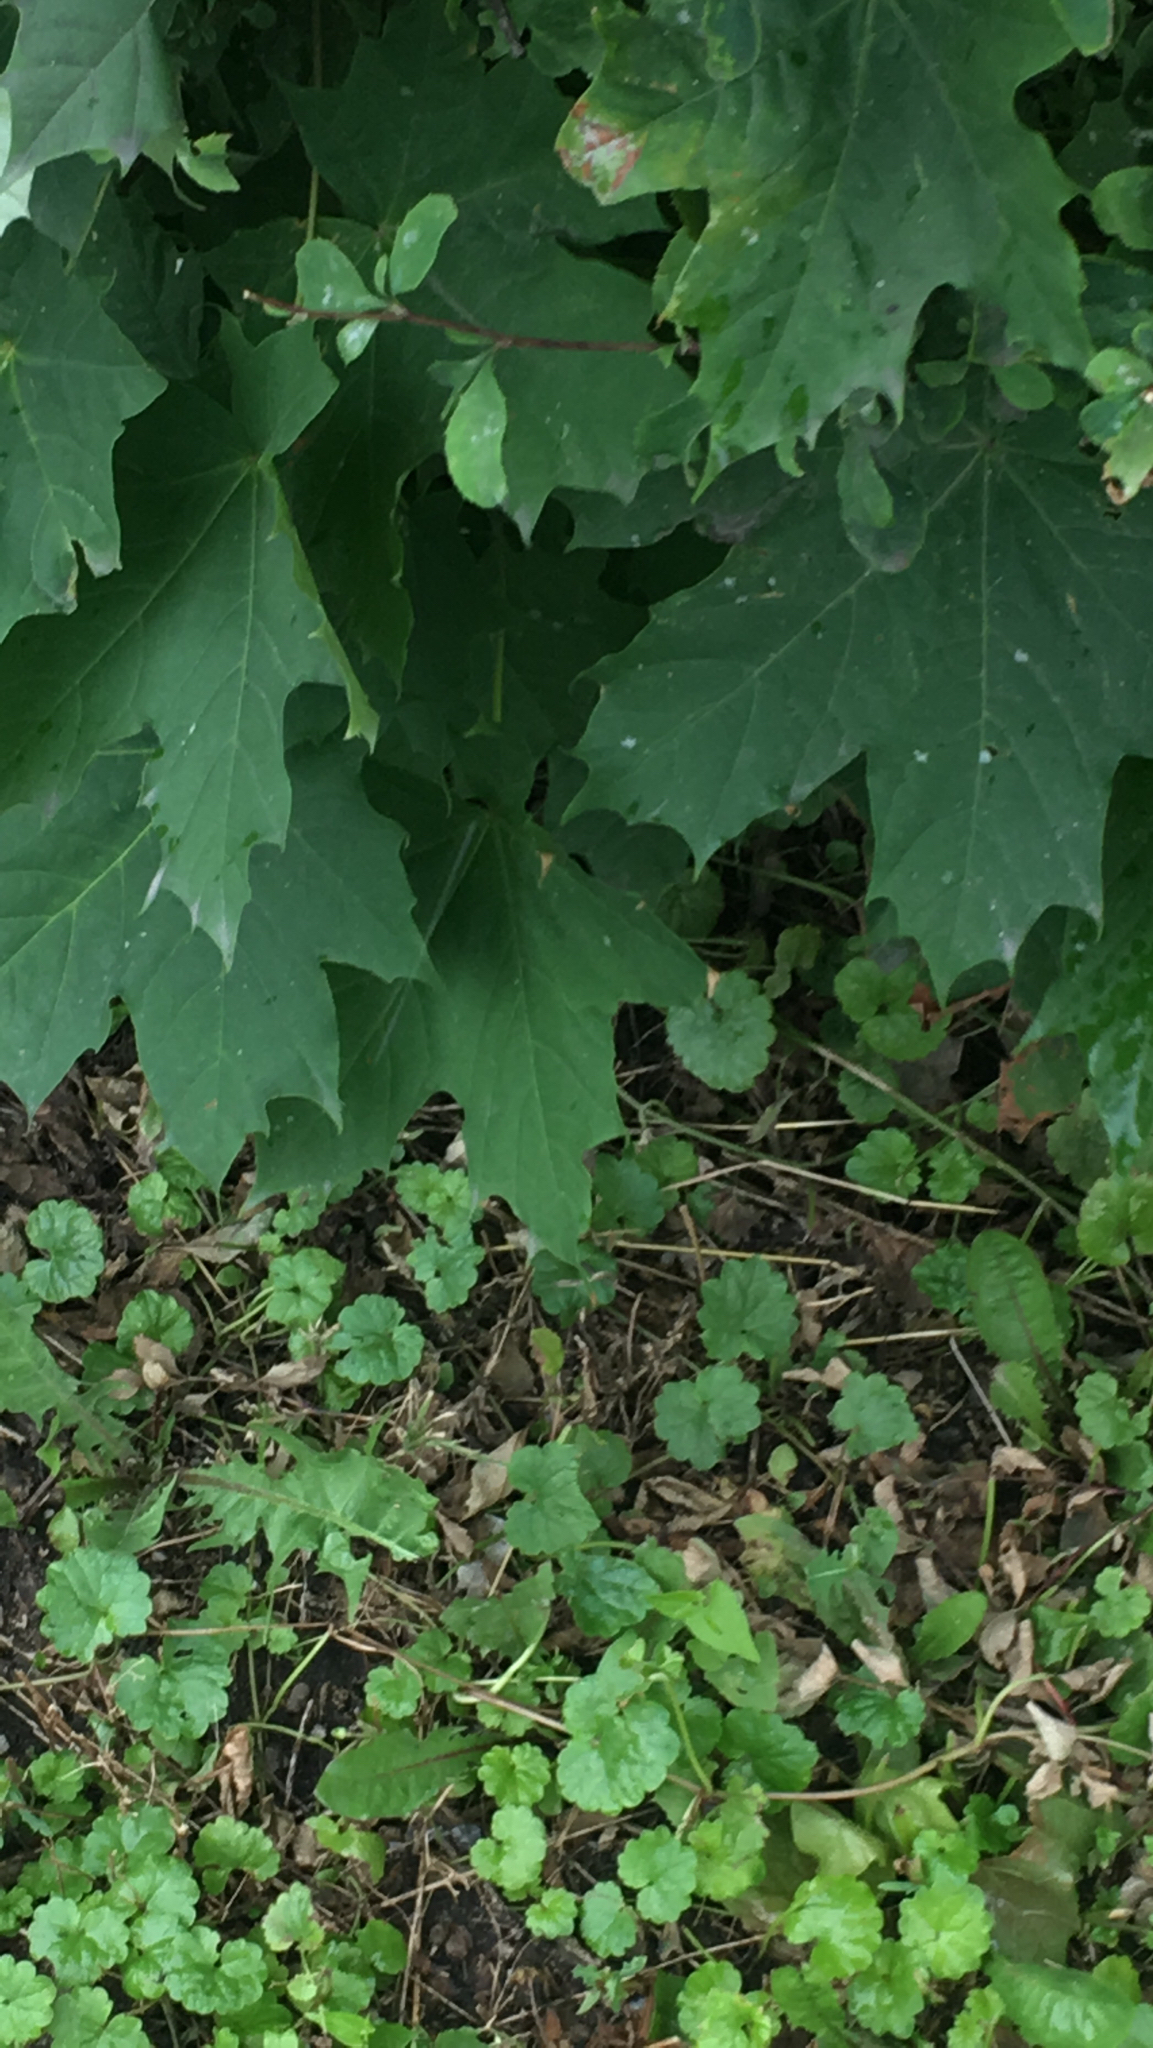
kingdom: Plantae
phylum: Tracheophyta
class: Magnoliopsida
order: Sapindales
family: Sapindaceae
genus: Acer
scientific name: Acer platanoides
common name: Norway maple
